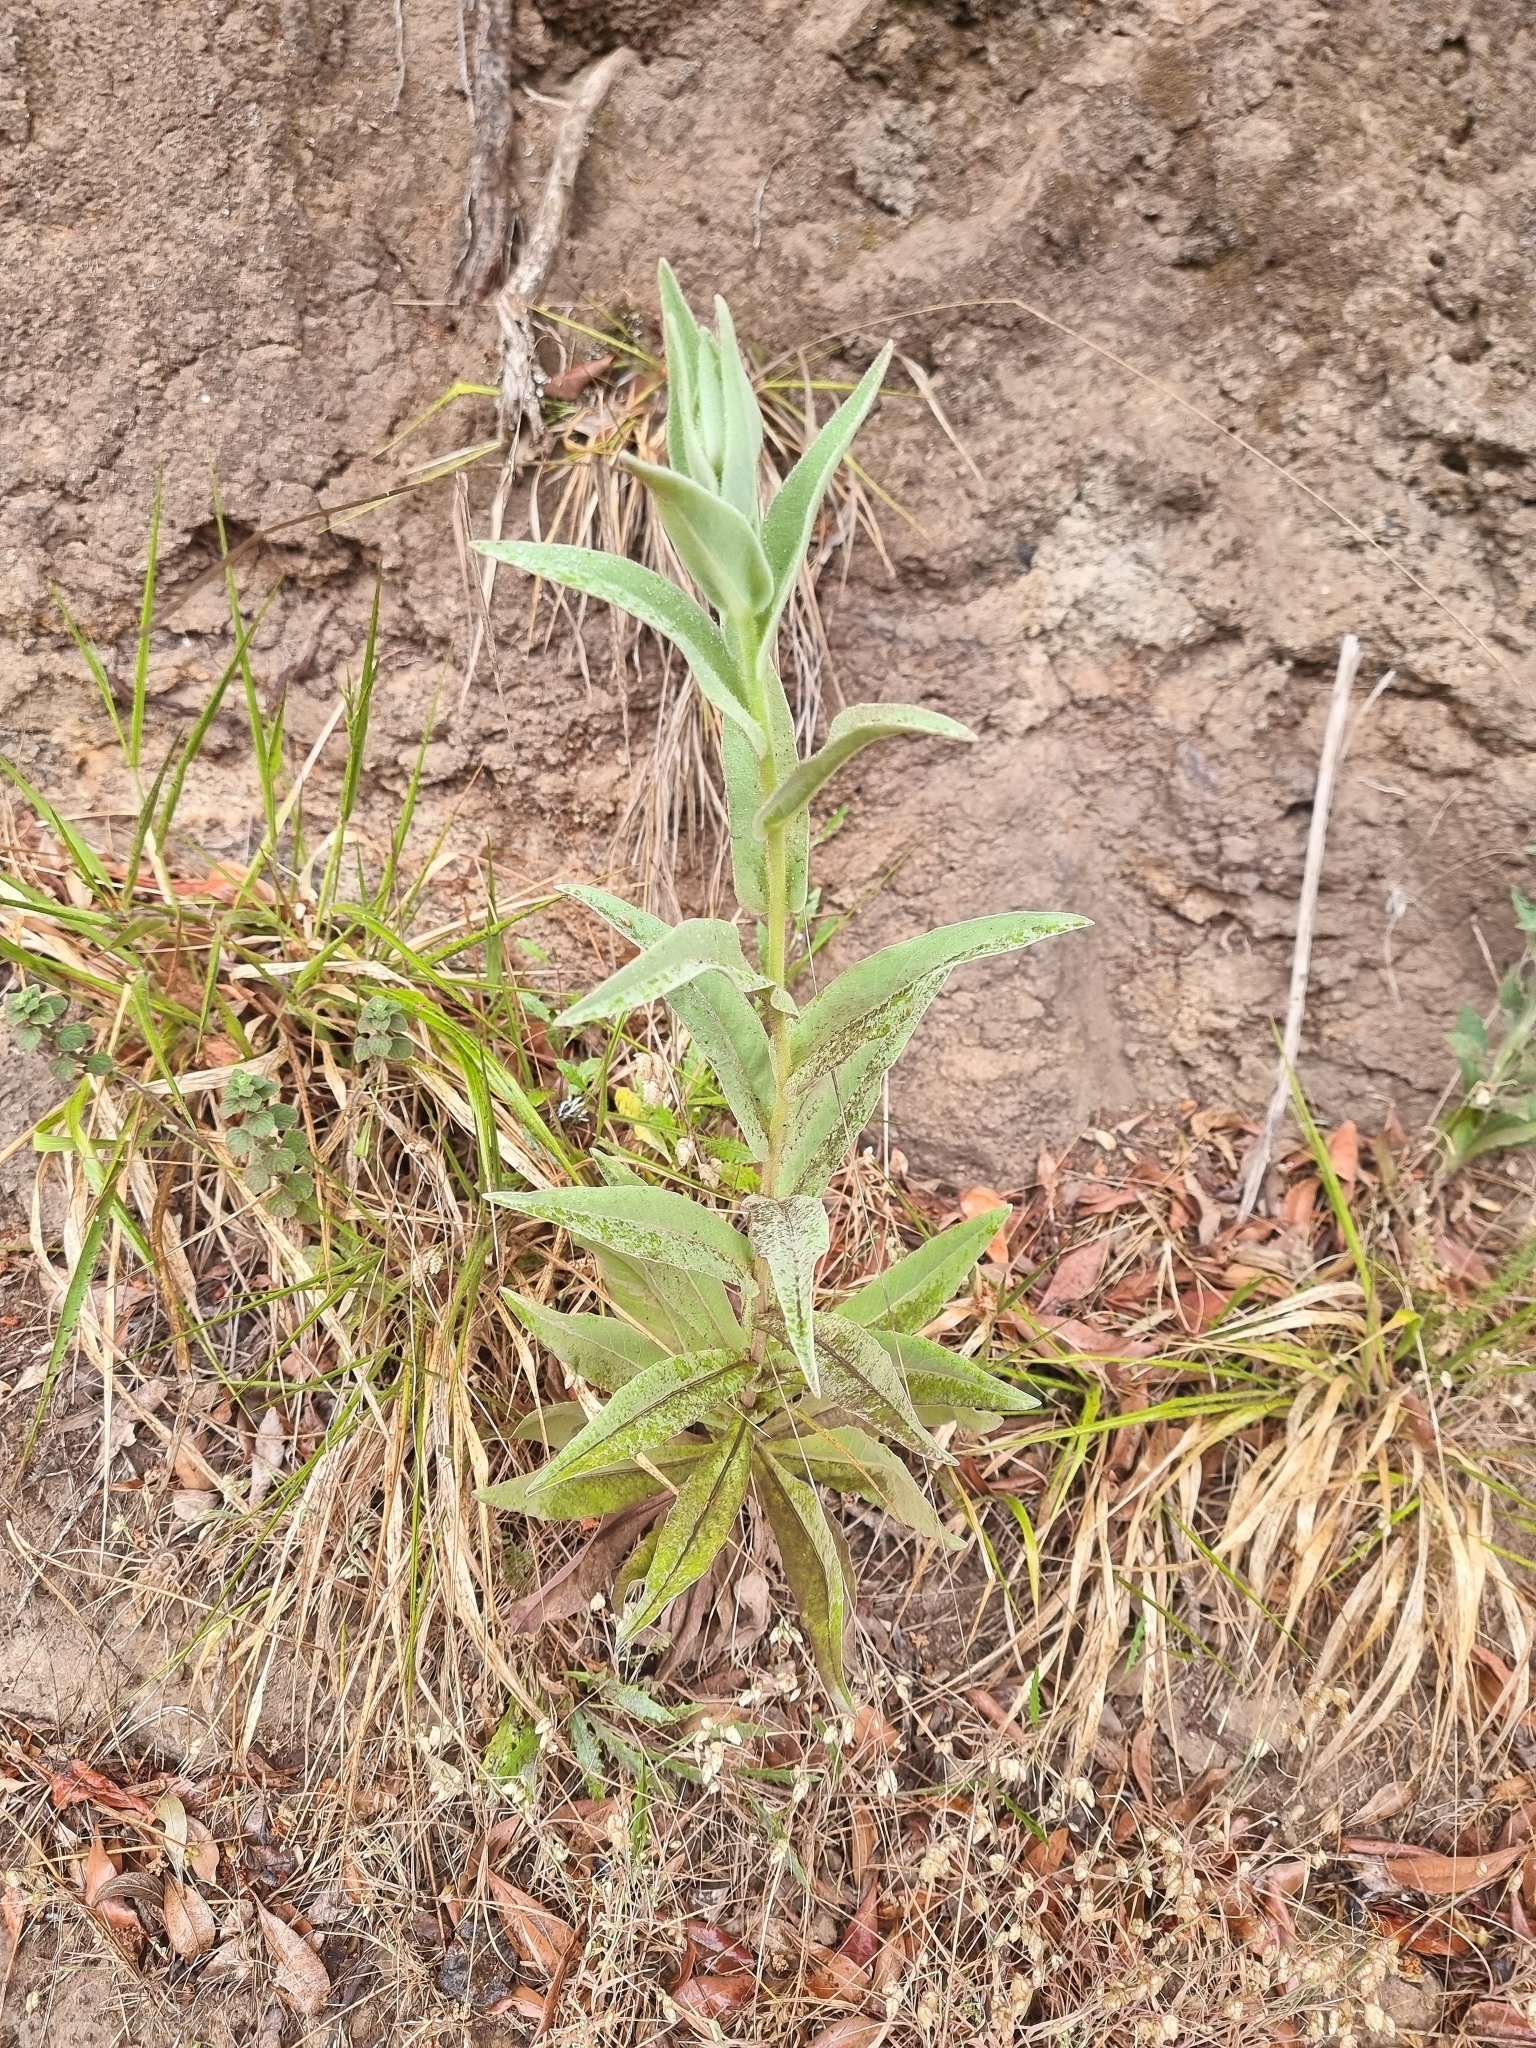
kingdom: Plantae
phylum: Tracheophyta
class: Magnoliopsida
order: Asterales
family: Asteraceae
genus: Helichrysum
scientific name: Helichrysum foetidum
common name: Stinking everlasting
